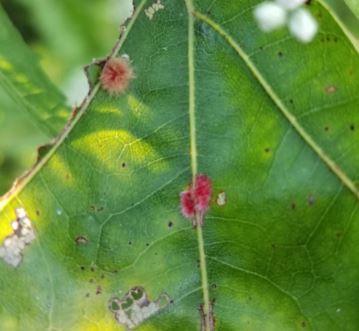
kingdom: Animalia
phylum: Arthropoda
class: Insecta
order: Hymenoptera
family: Cynipidae
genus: Callirhytis
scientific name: Callirhytis
